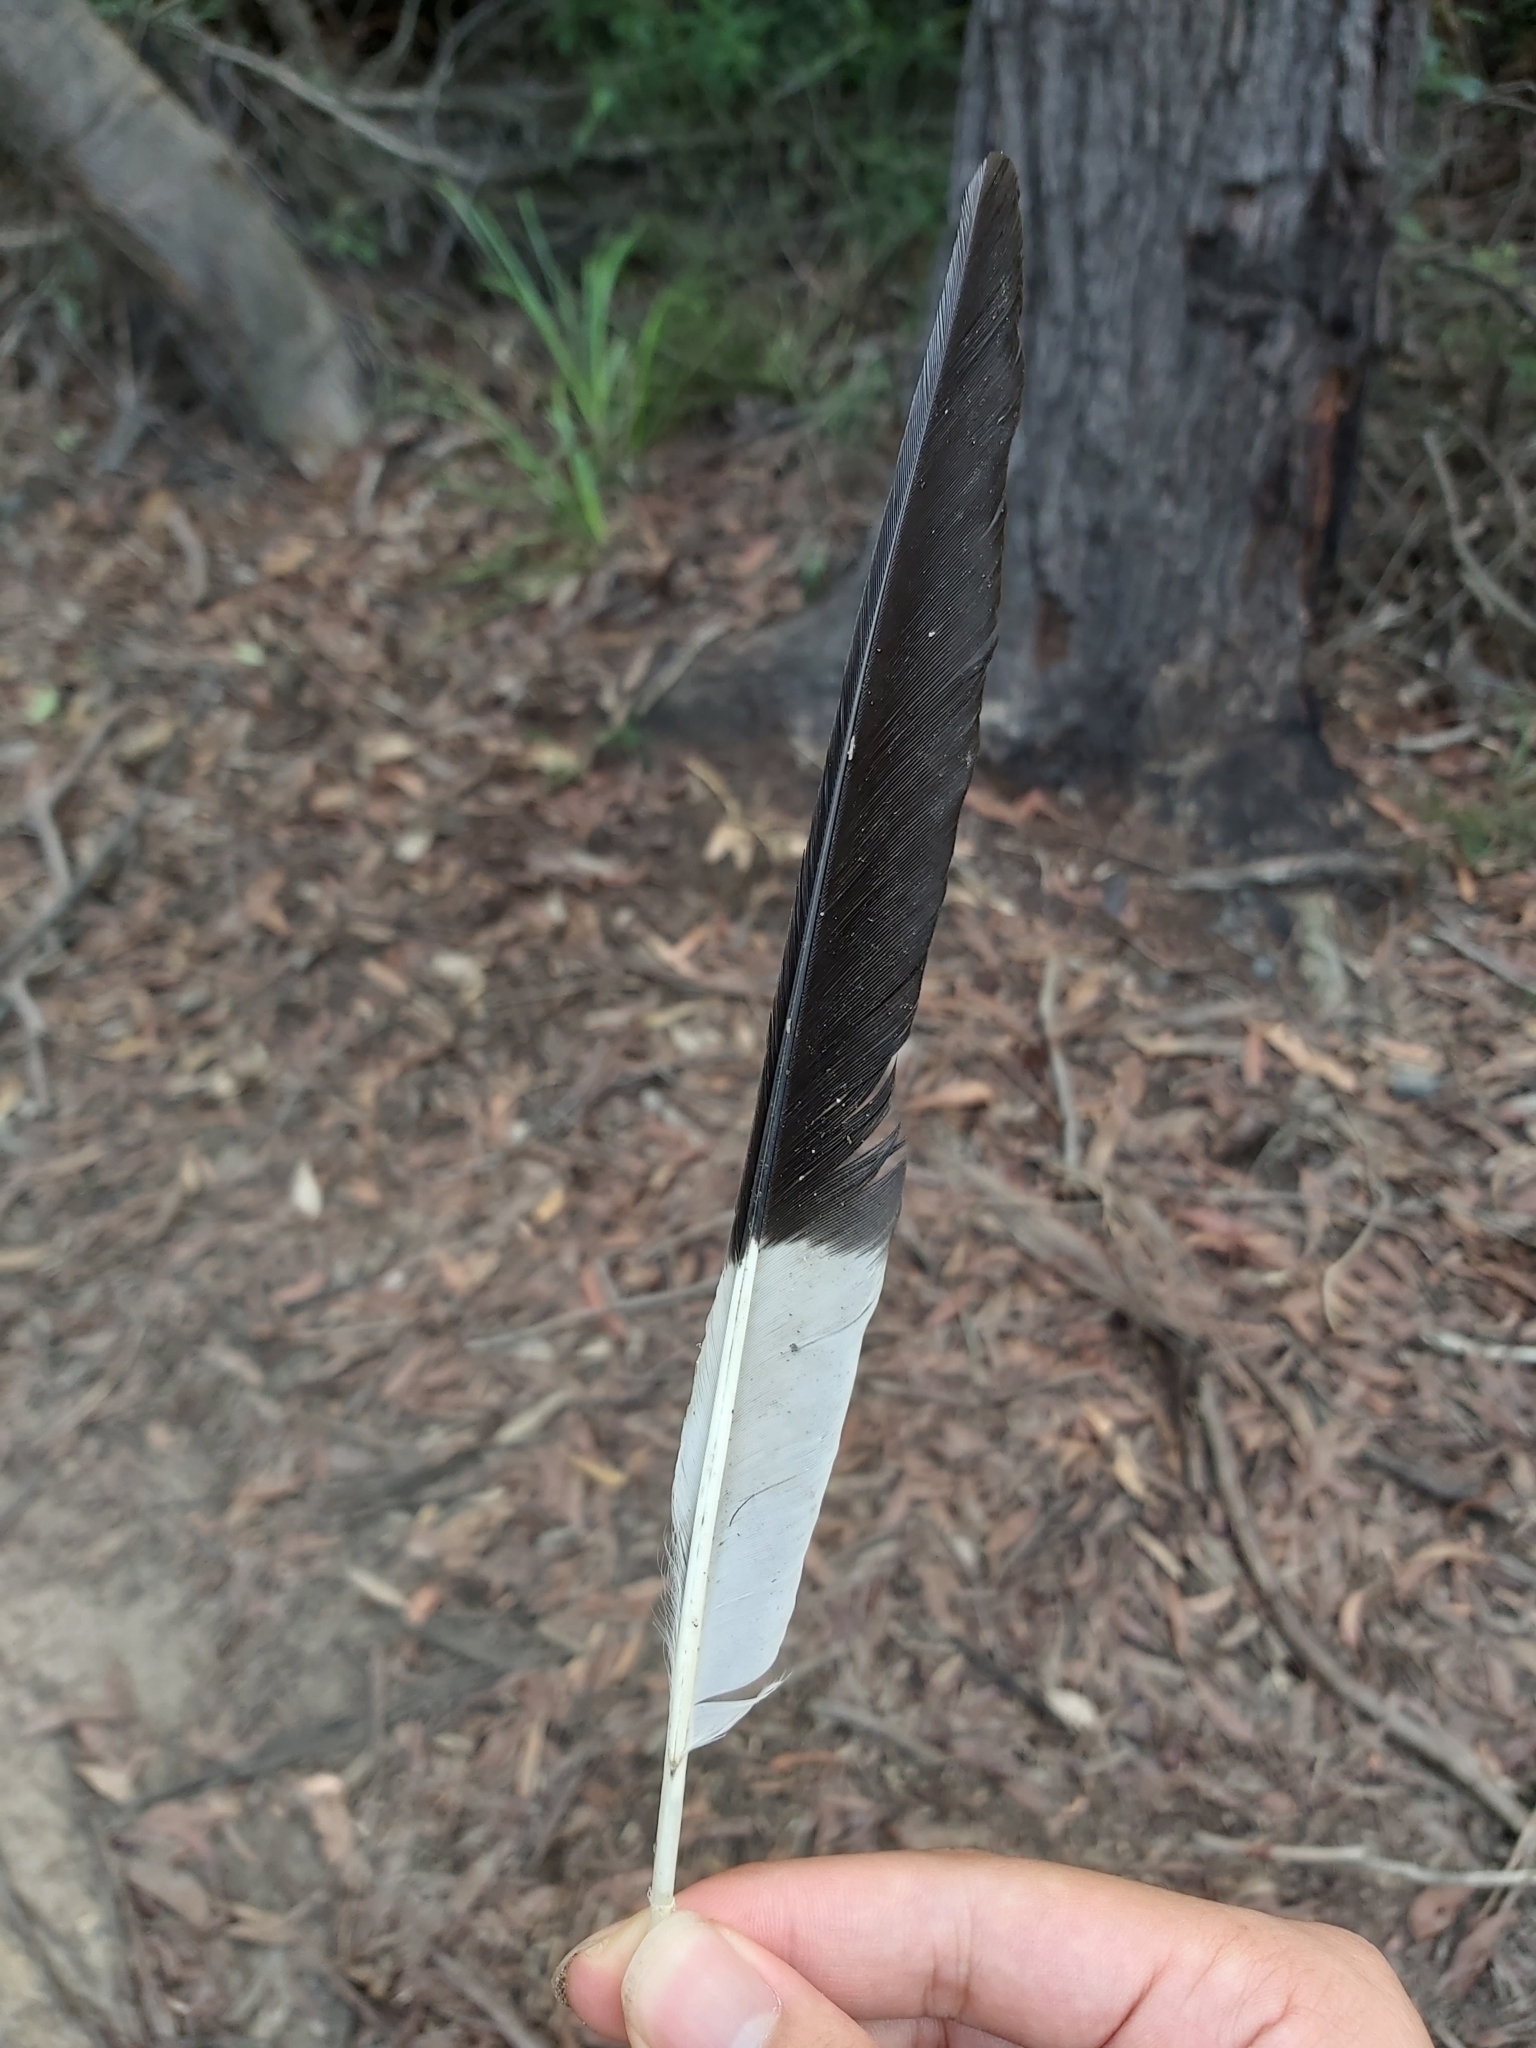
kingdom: Animalia
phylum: Chordata
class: Aves
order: Passeriformes
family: Cracticidae
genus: Strepera
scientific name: Strepera graculina
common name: Pied currawong
